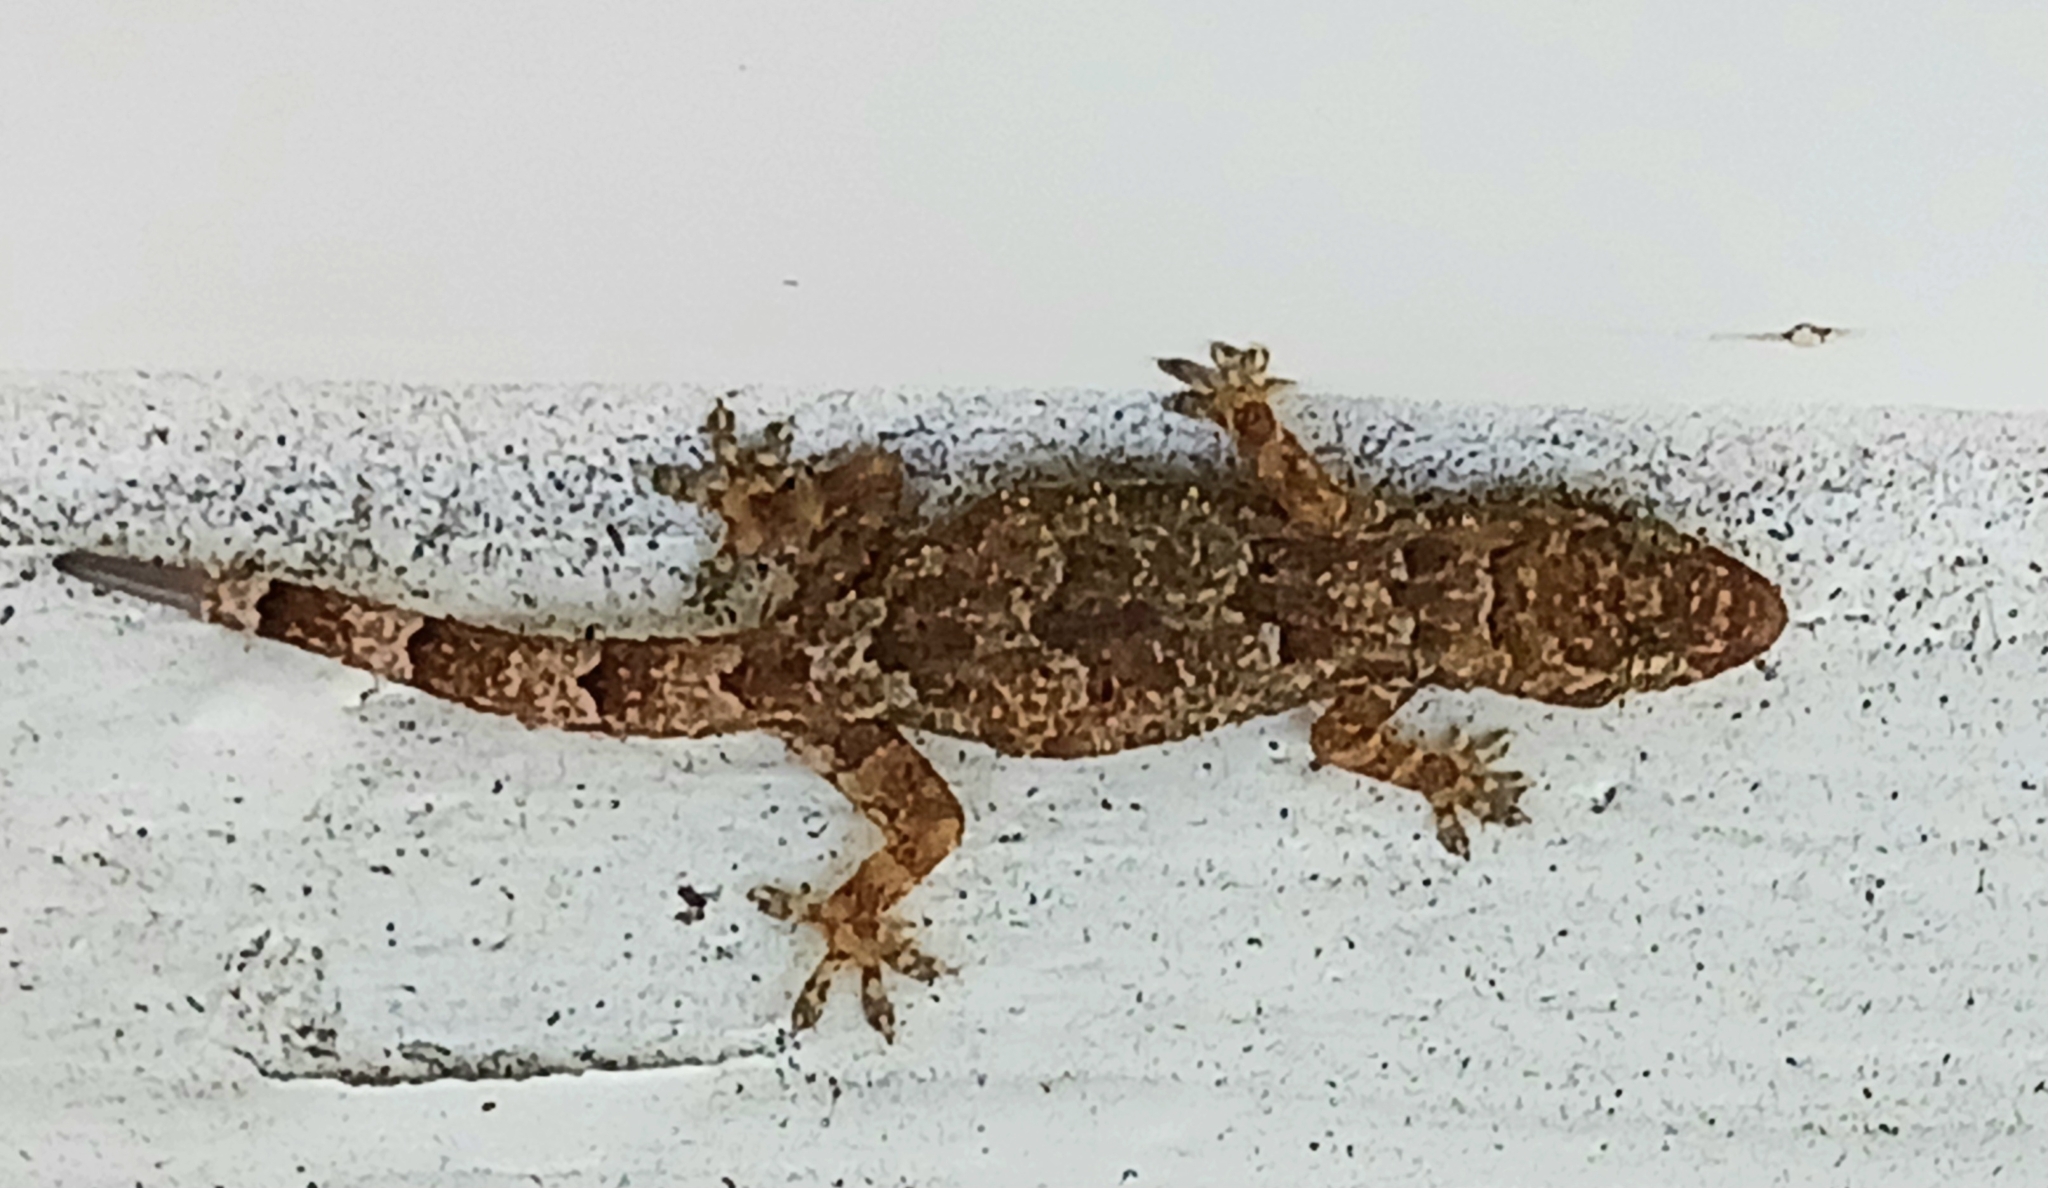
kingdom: Animalia
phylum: Chordata
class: Squamata
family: Gekkonidae
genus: Hemidactylus
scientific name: Hemidactylus mabouia
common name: House gecko
